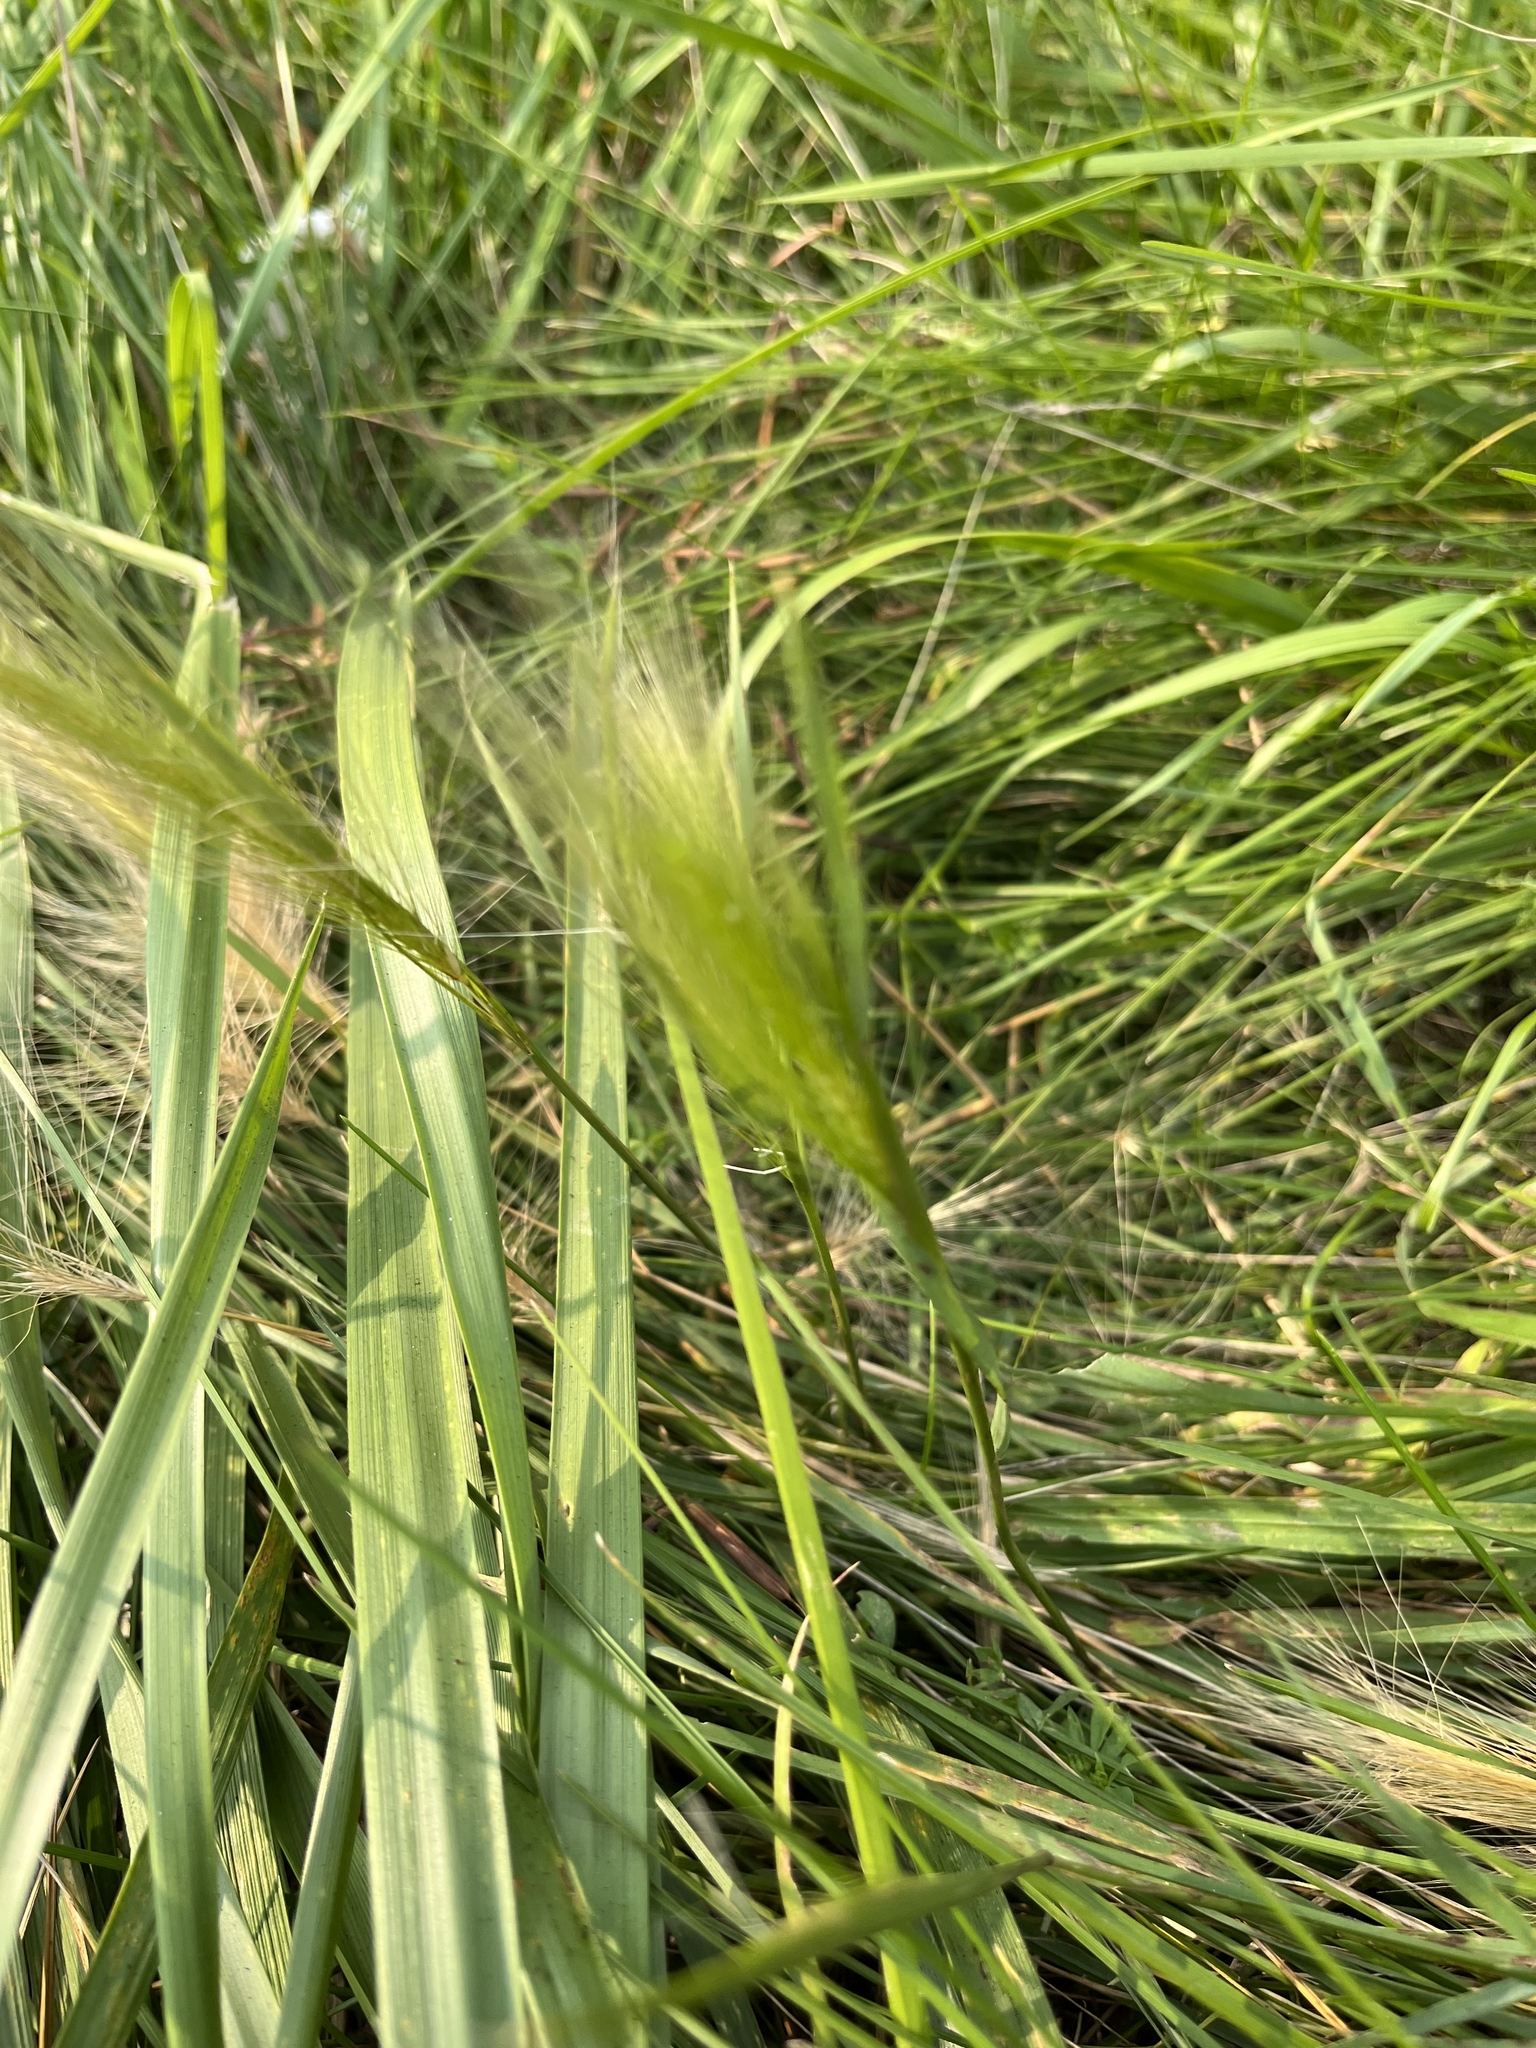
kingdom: Plantae
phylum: Tracheophyta
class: Liliopsida
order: Poales
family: Poaceae
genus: Hordeum
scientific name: Hordeum jubatum
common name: Foxtail barley
